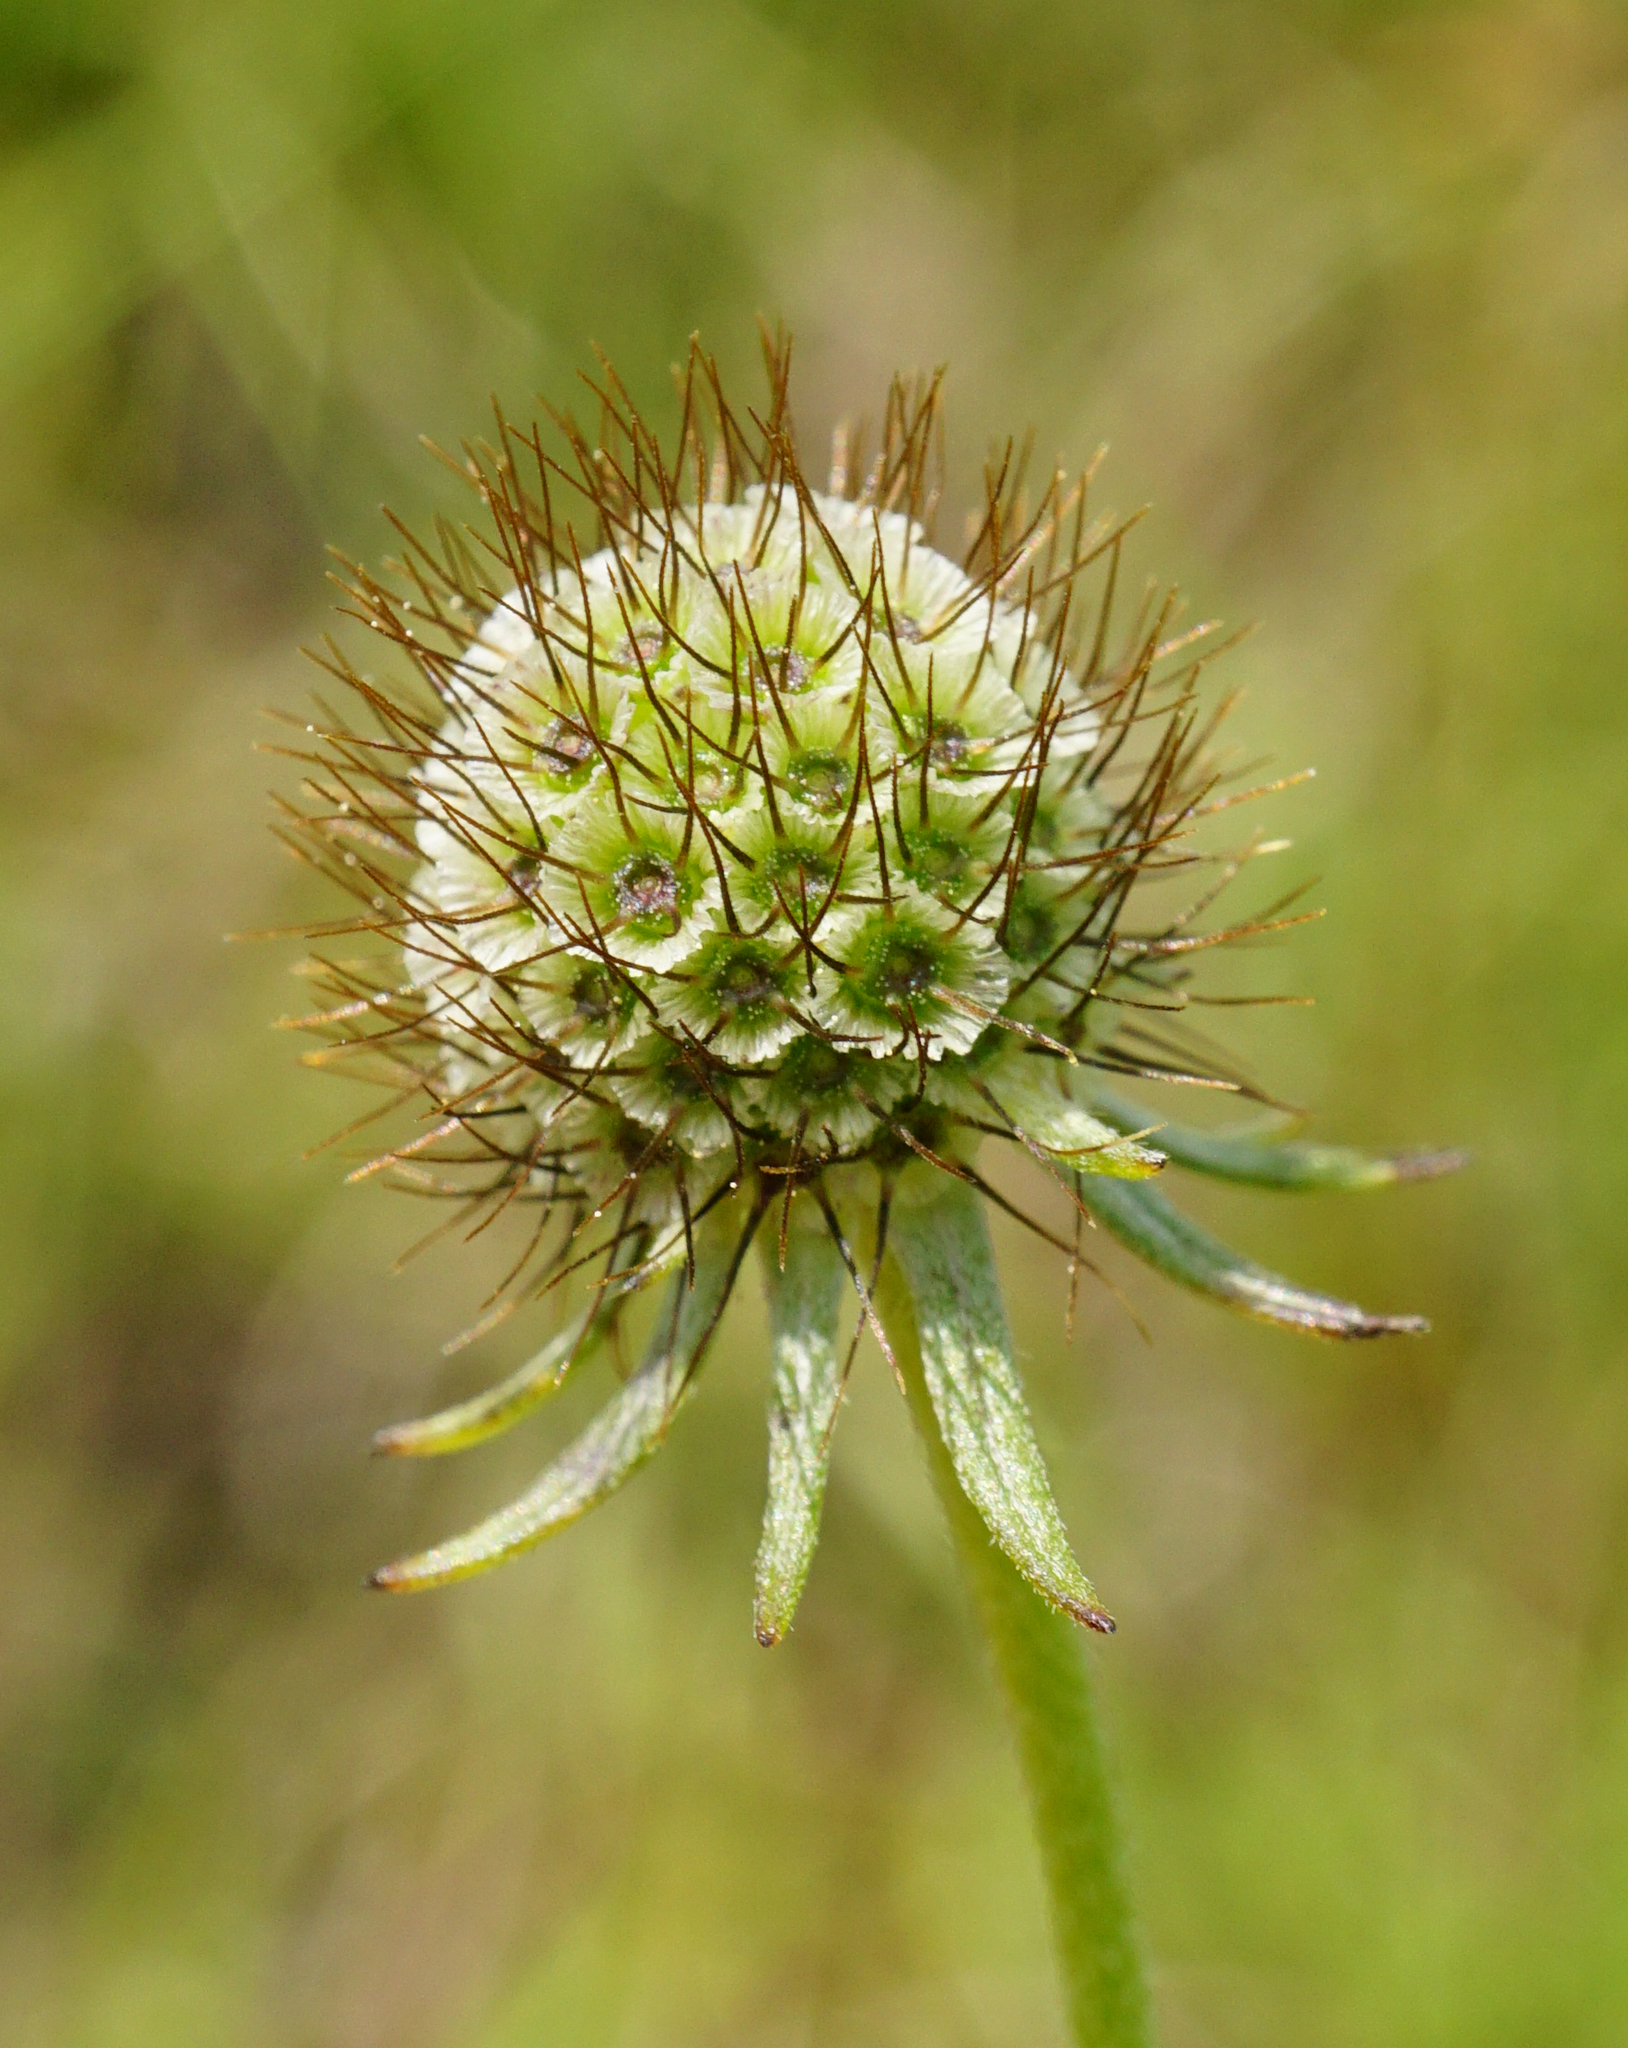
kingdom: Plantae
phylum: Tracheophyta
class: Magnoliopsida
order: Dipsacales
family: Caprifoliaceae
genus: Scabiosa
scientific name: Scabiosa ochroleuca
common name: Cream pincushions
